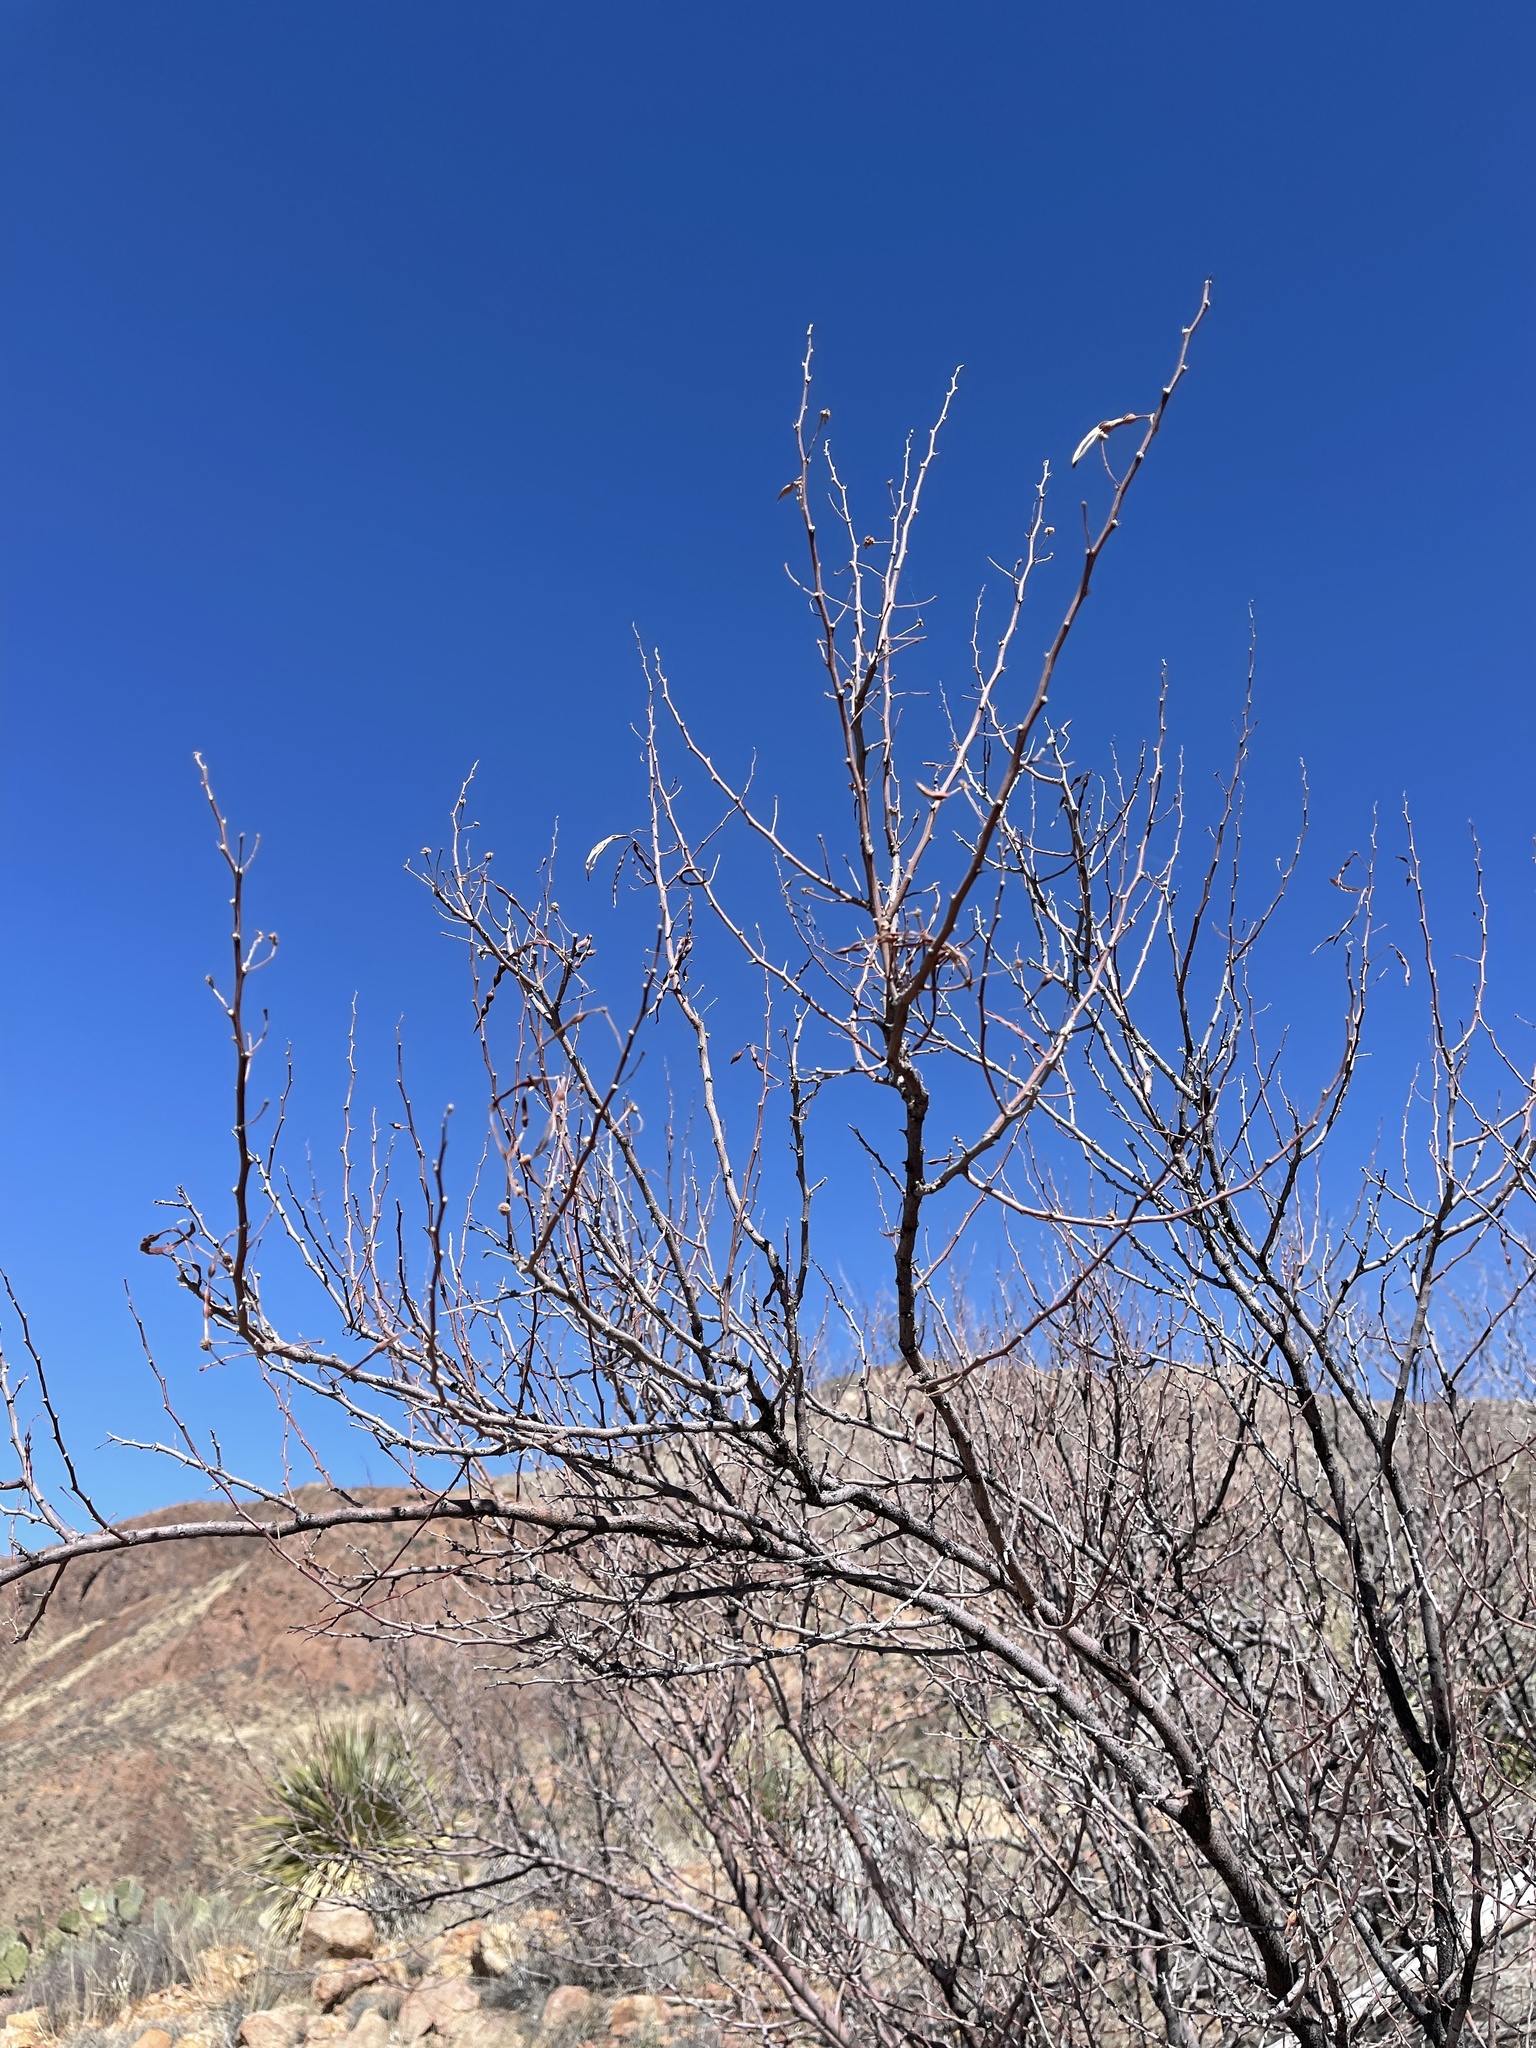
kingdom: Plantae
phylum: Tracheophyta
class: Magnoliopsida
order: Fabales
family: Fabaceae
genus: Vachellia
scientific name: Vachellia constricta
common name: Mescat acacia
